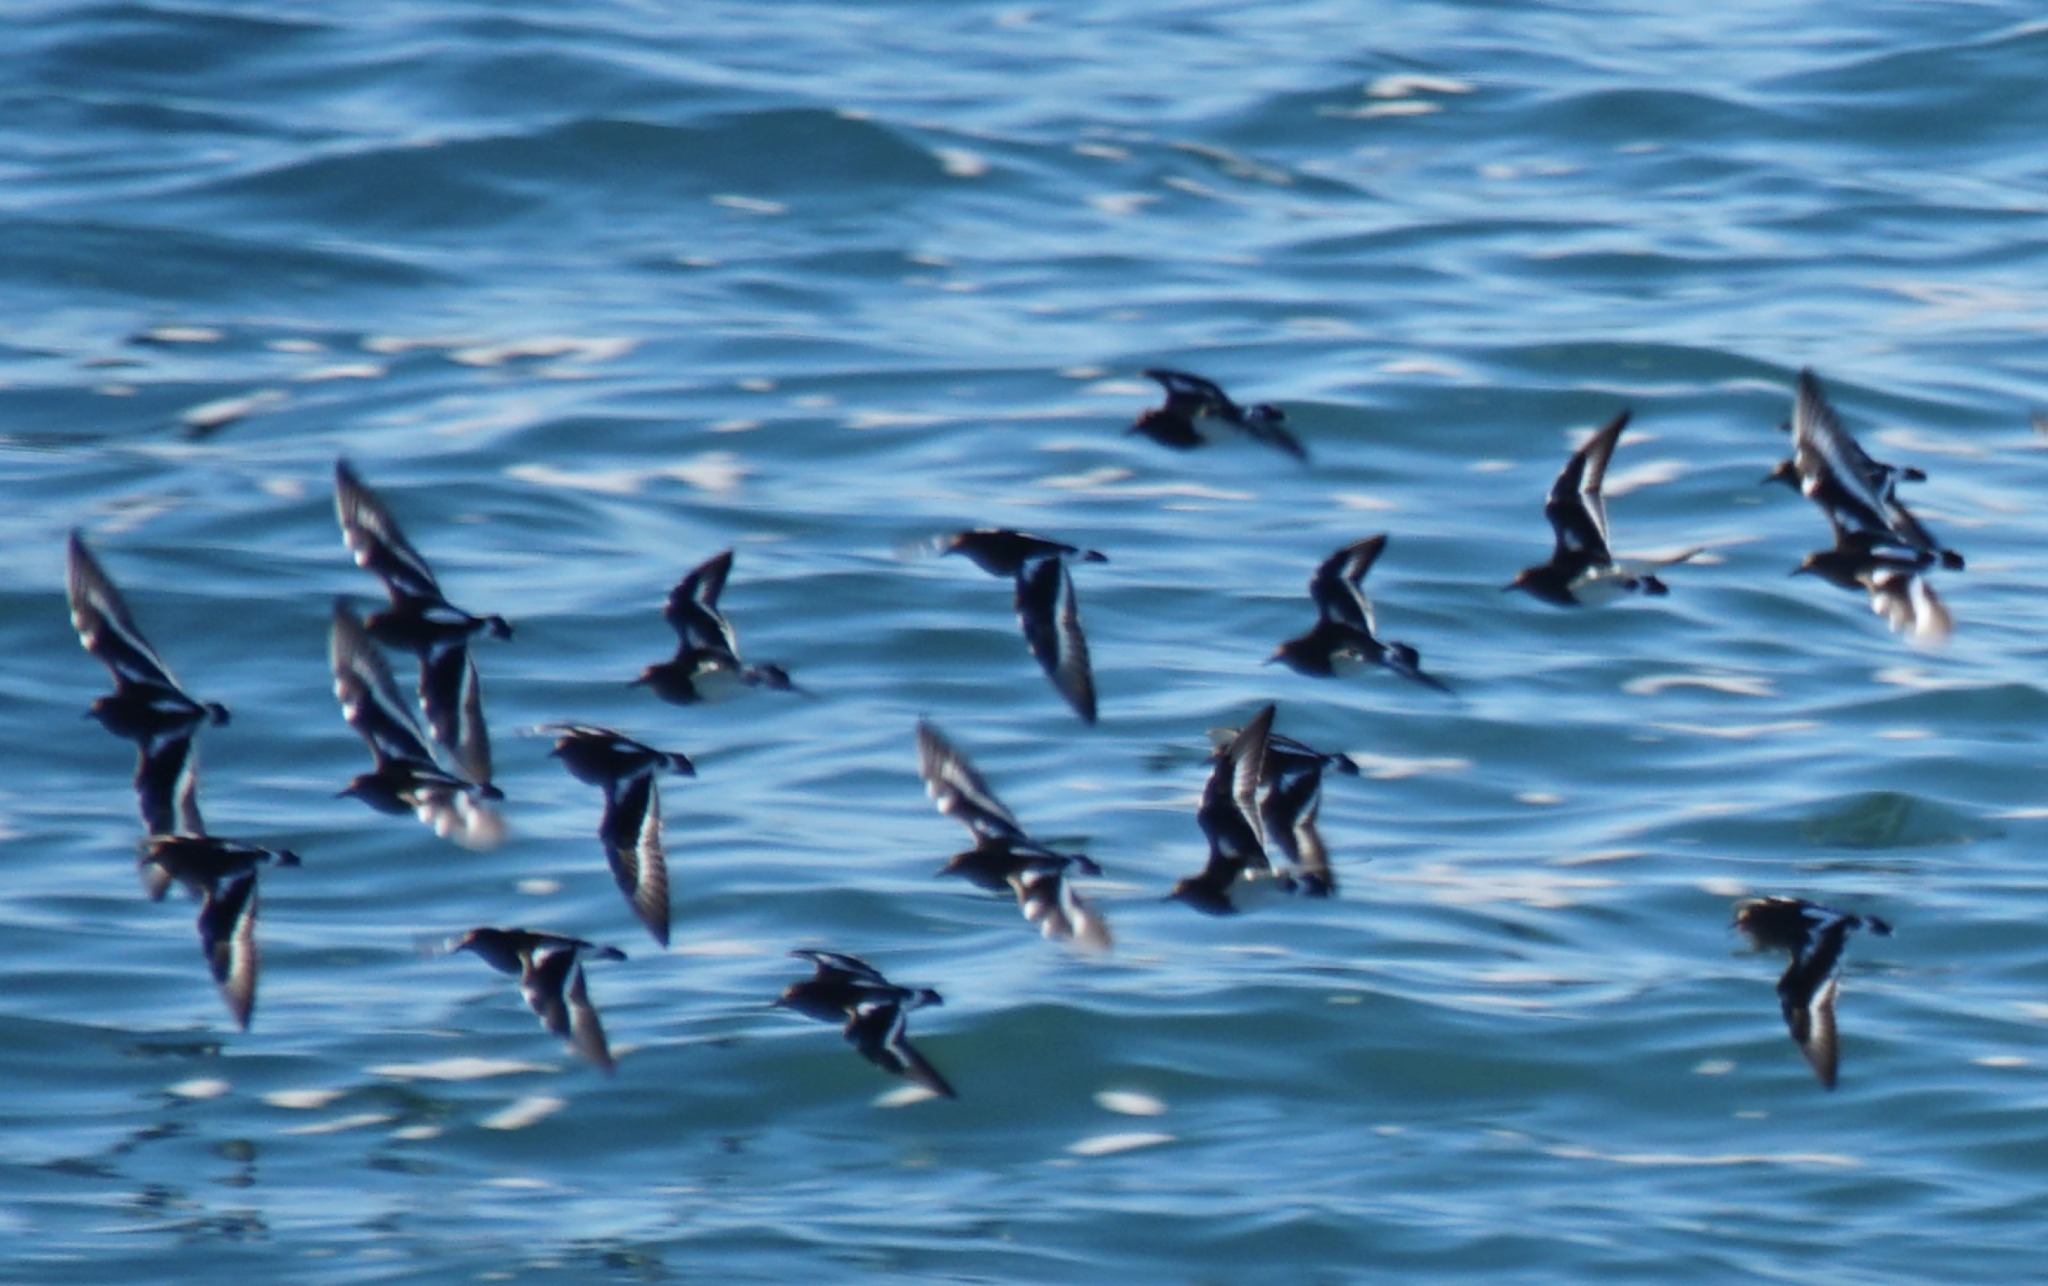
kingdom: Animalia
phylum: Chordata
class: Aves
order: Charadriiformes
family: Scolopacidae
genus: Arenaria
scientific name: Arenaria melanocephala
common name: Black turnstone
